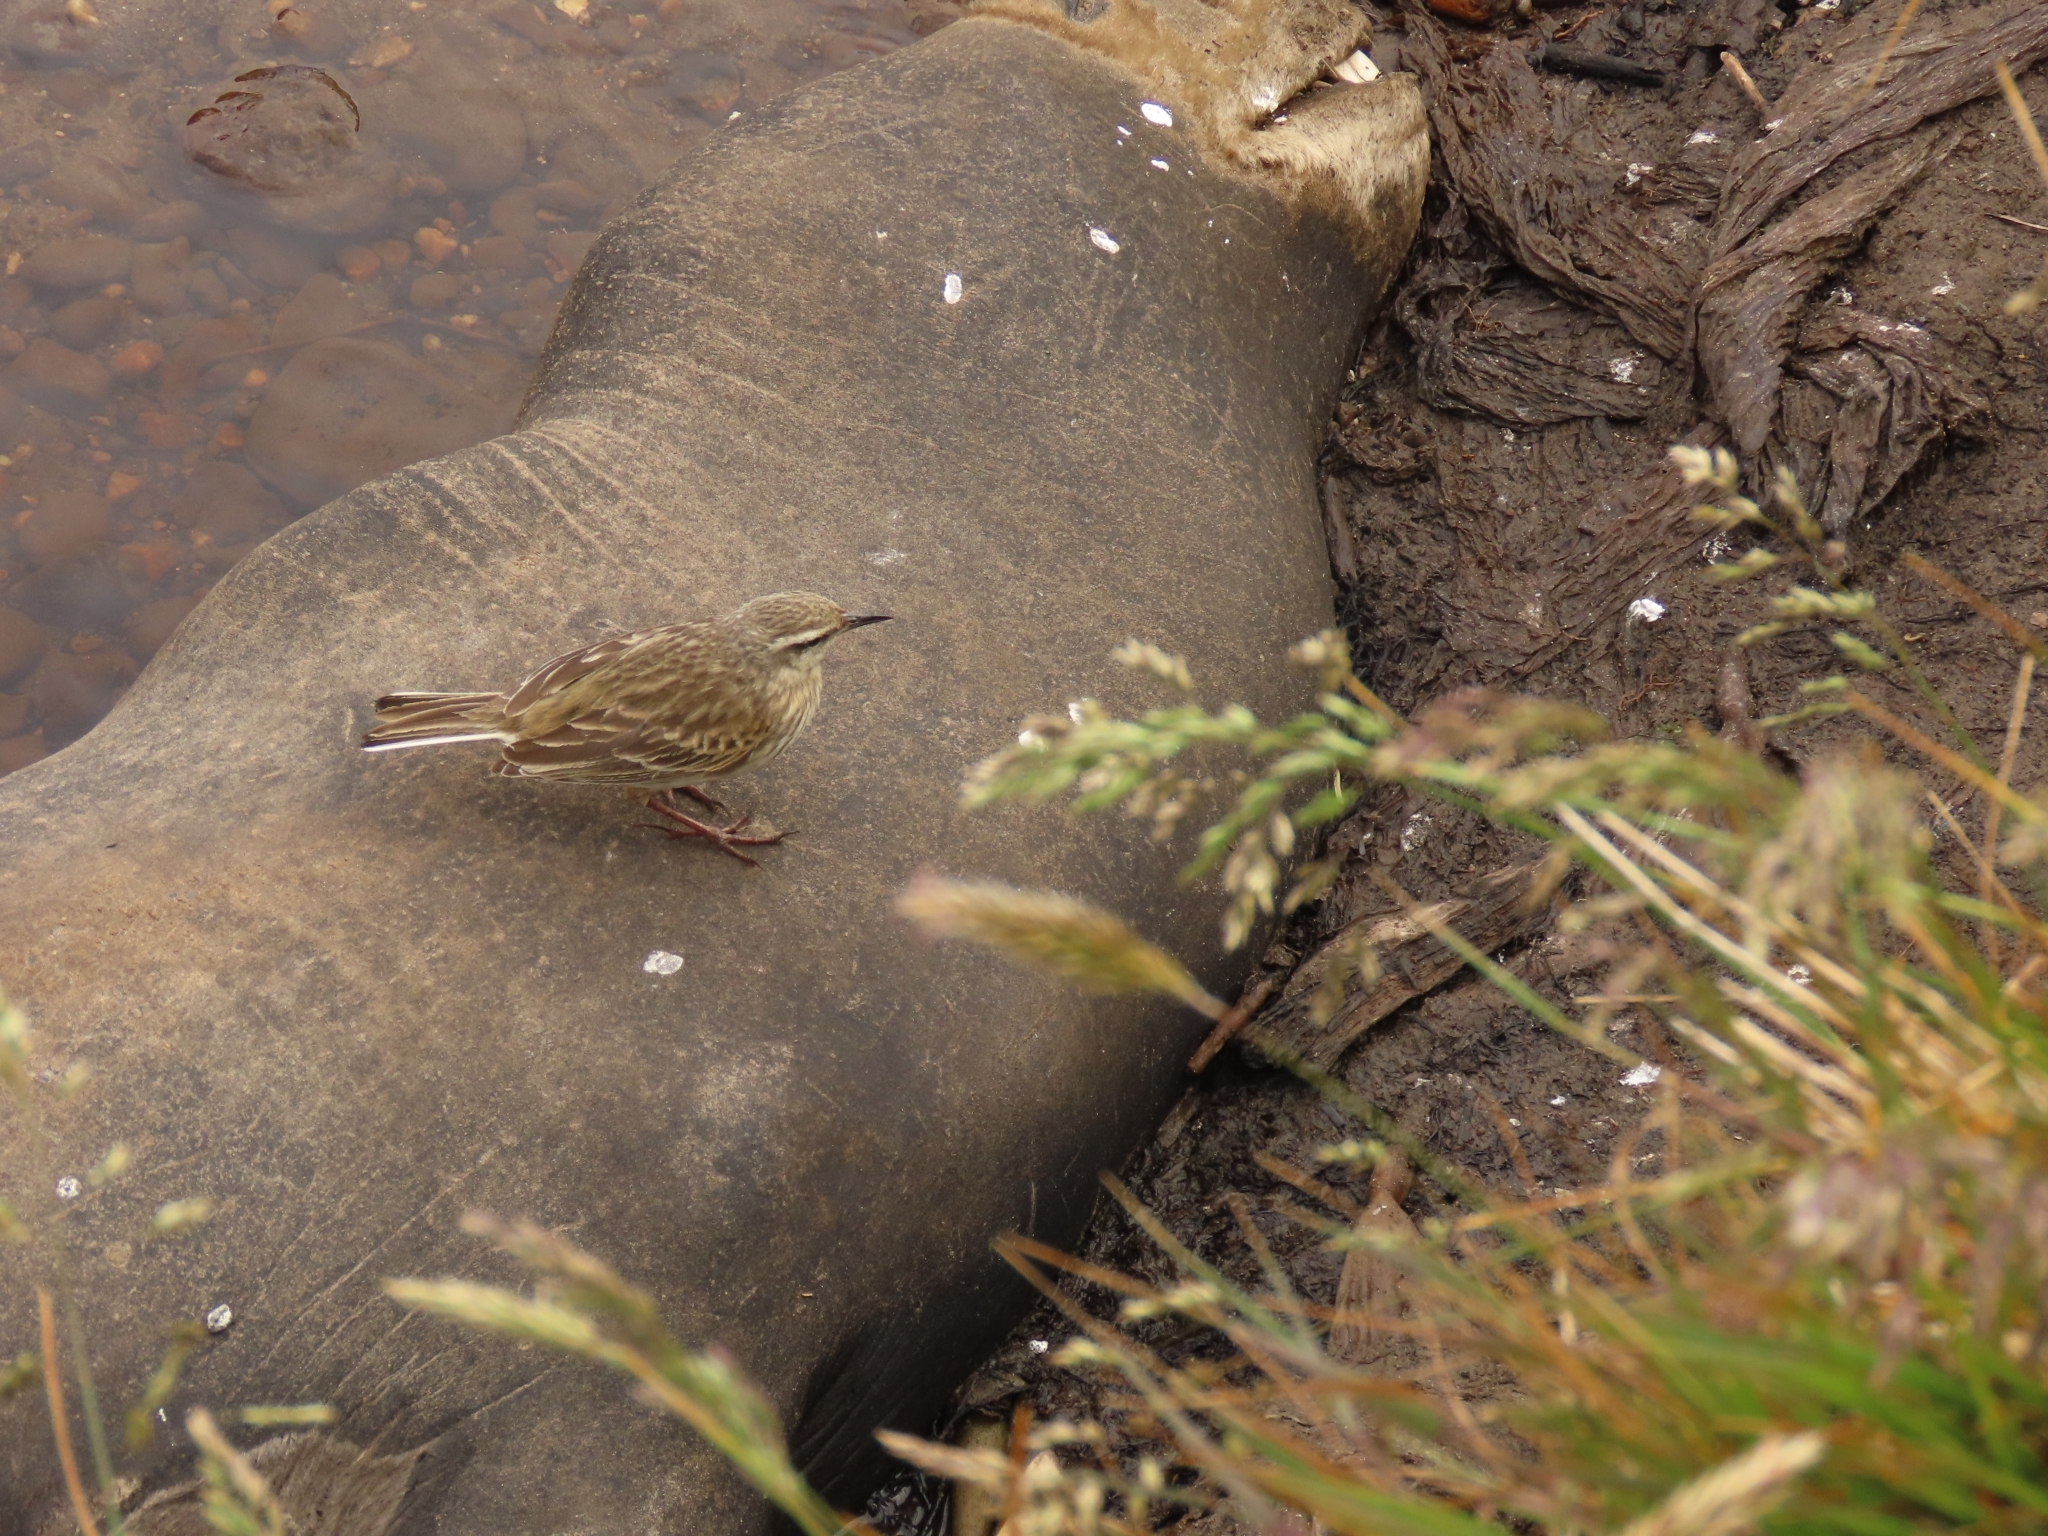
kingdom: Animalia
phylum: Chordata
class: Aves
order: Passeriformes
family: Motacillidae
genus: Anthus
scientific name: Anthus novaeseelandiae
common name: New zealand pipit
